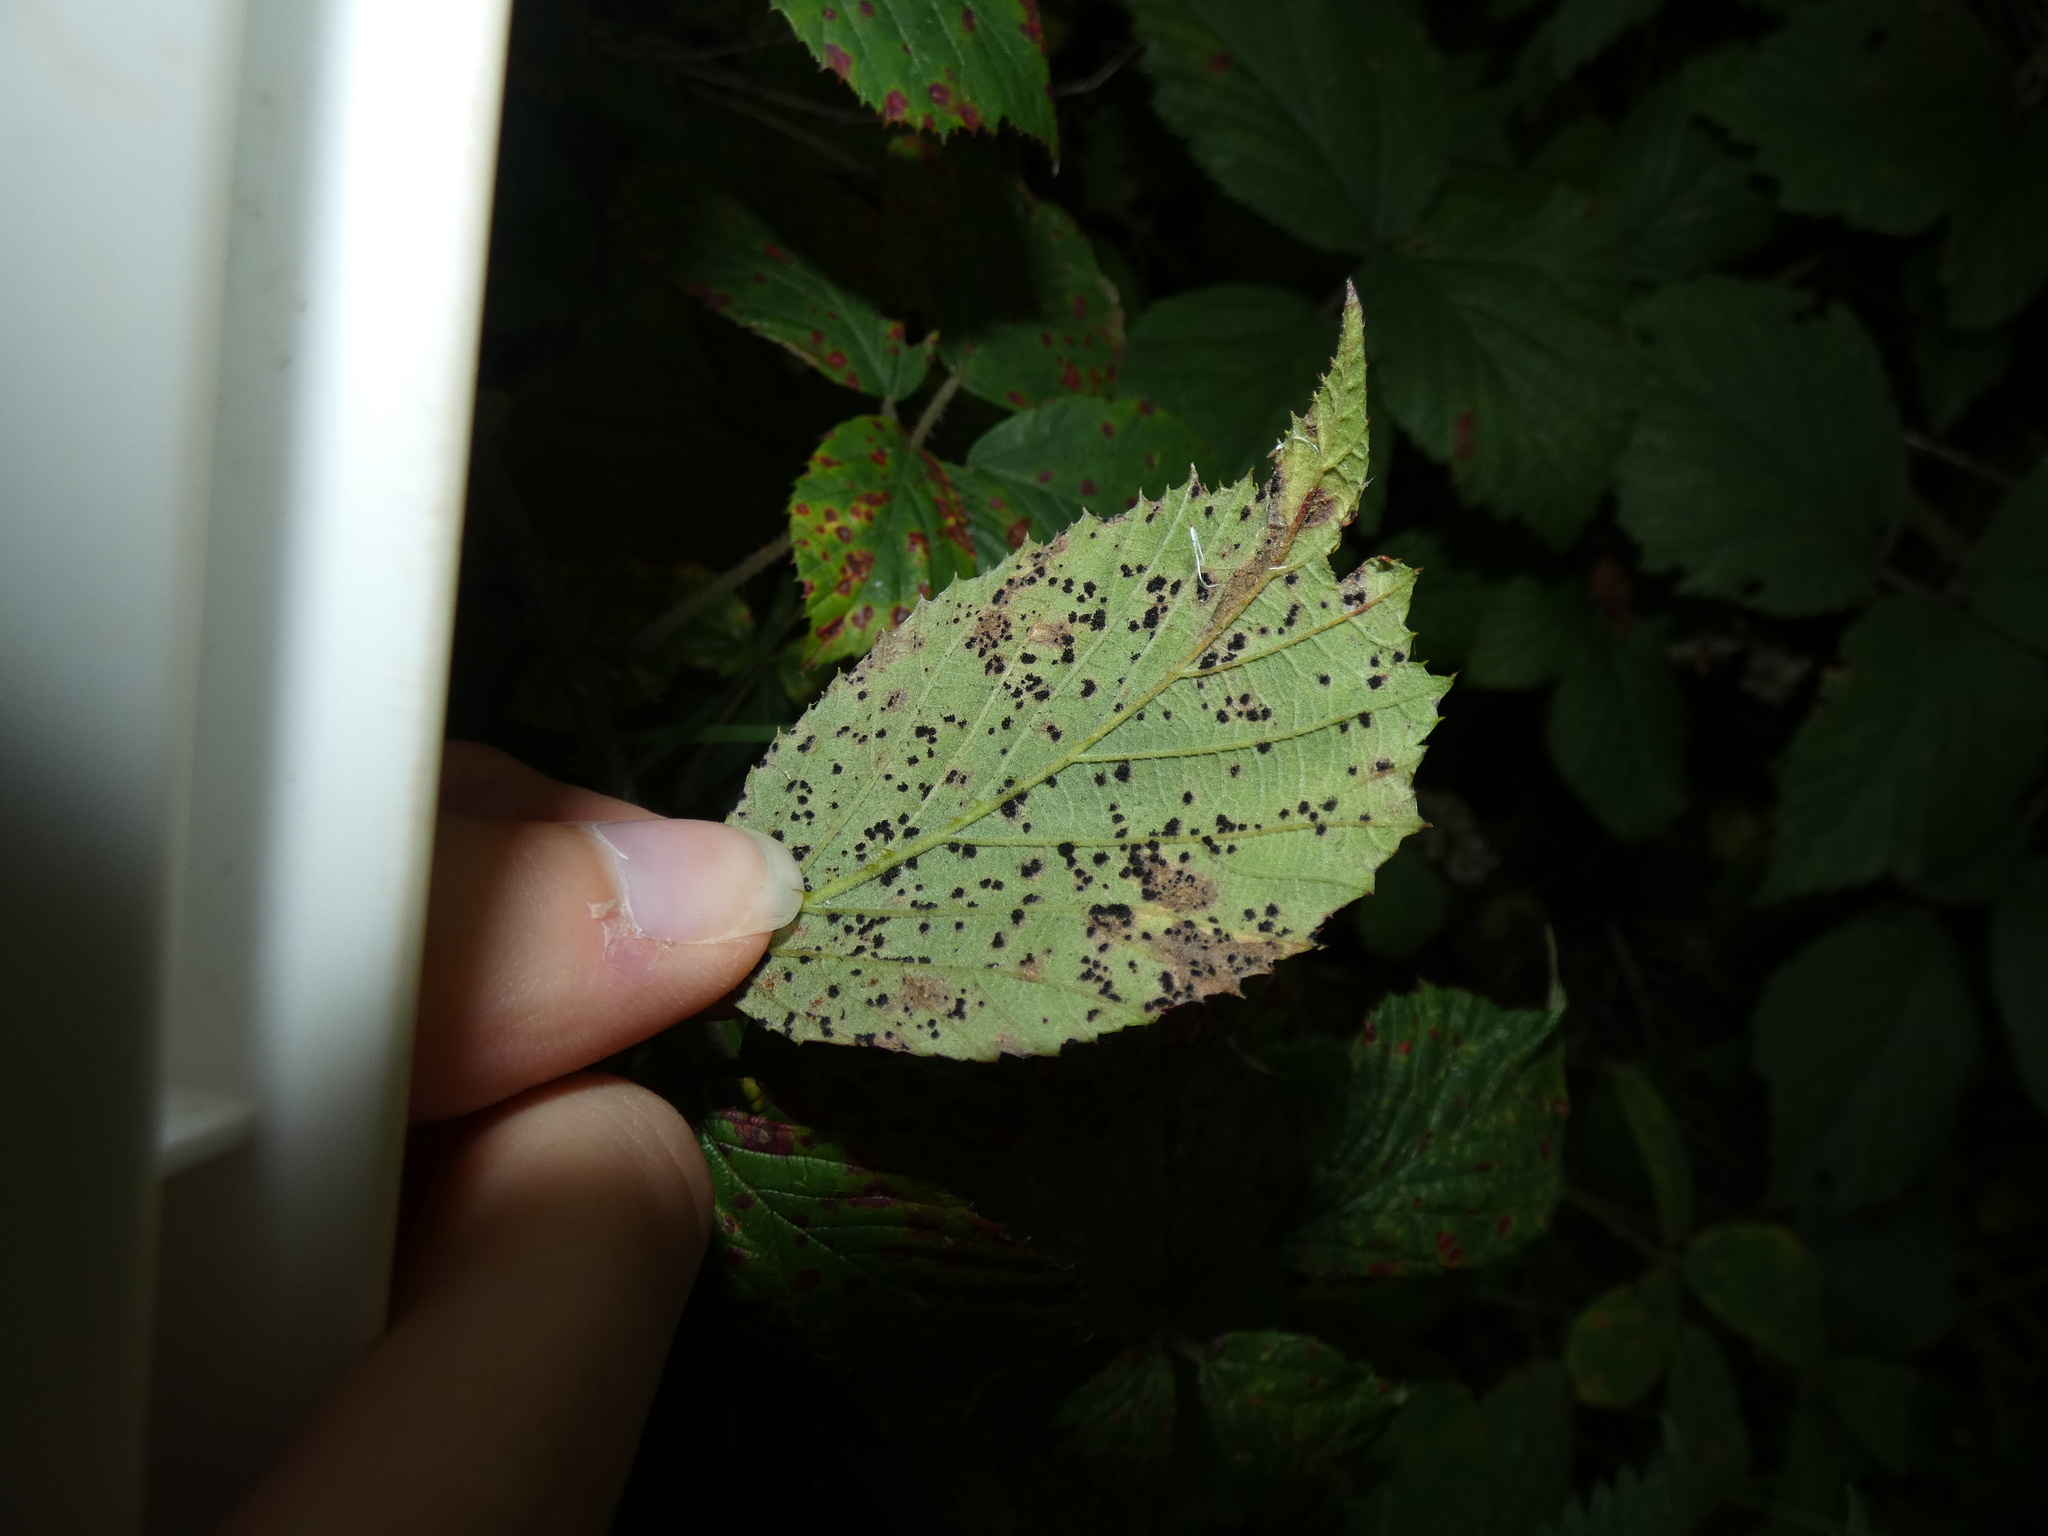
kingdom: Fungi
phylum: Basidiomycota
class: Pucciniomycetes
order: Pucciniales
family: Phragmidiaceae
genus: Phragmidium
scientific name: Phragmidium violaceum
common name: Violet bramble rust
